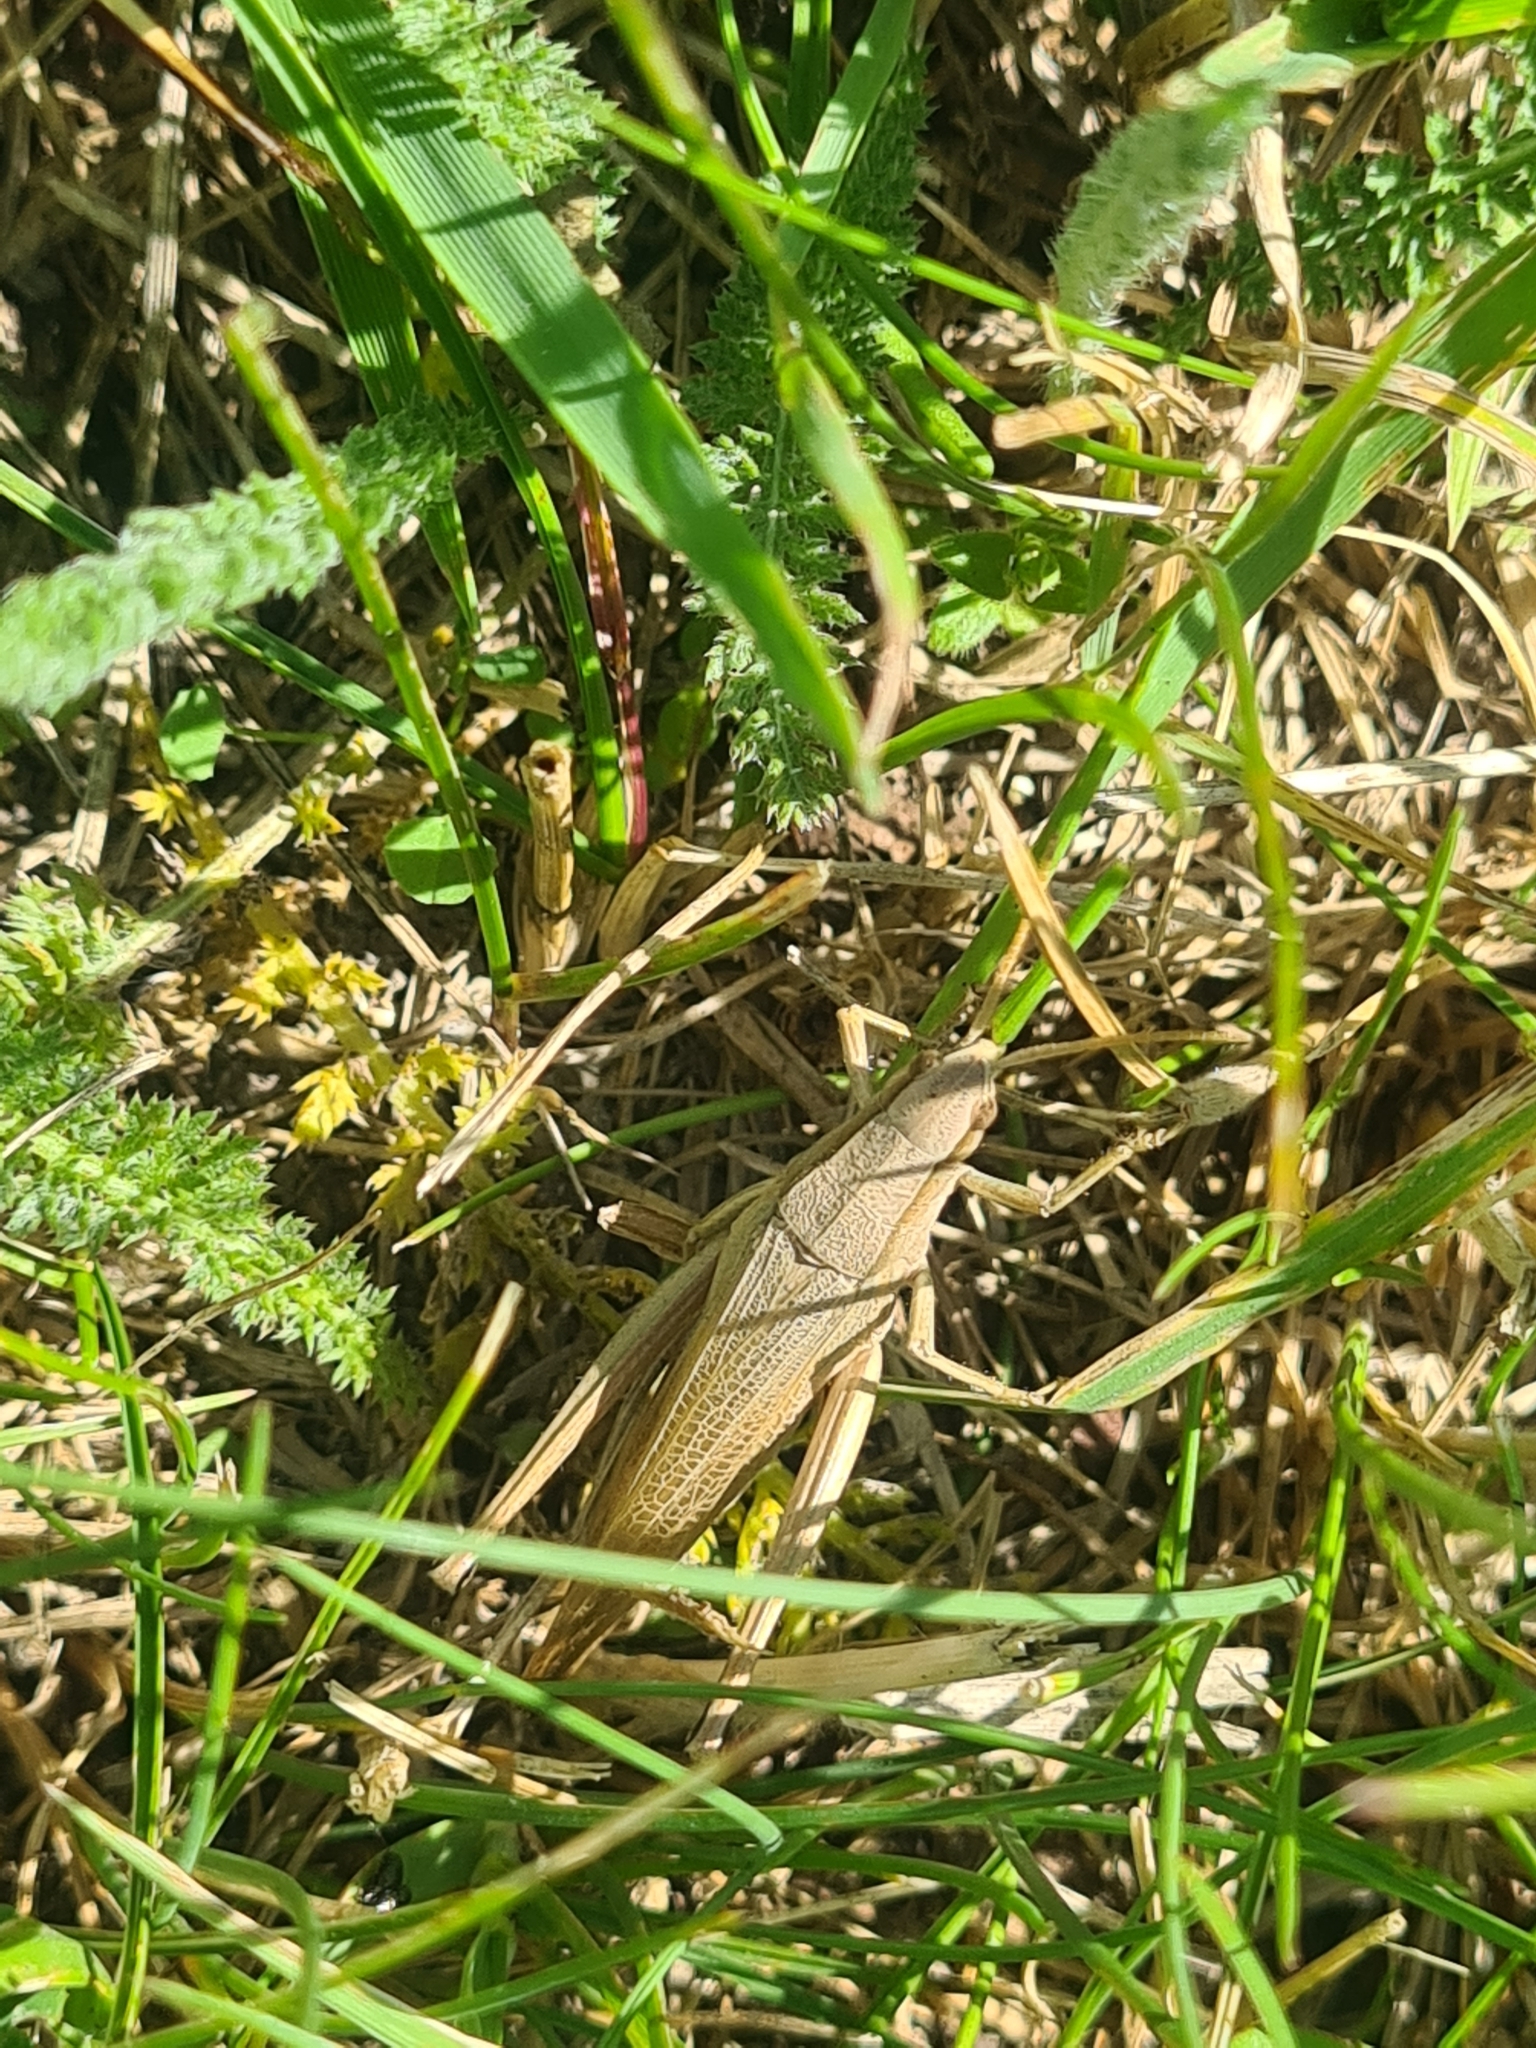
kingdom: Animalia
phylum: Arthropoda
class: Insecta
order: Orthoptera
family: Acrididae
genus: Chrysochraon
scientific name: Chrysochraon dispar
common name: Large gold grasshopper
